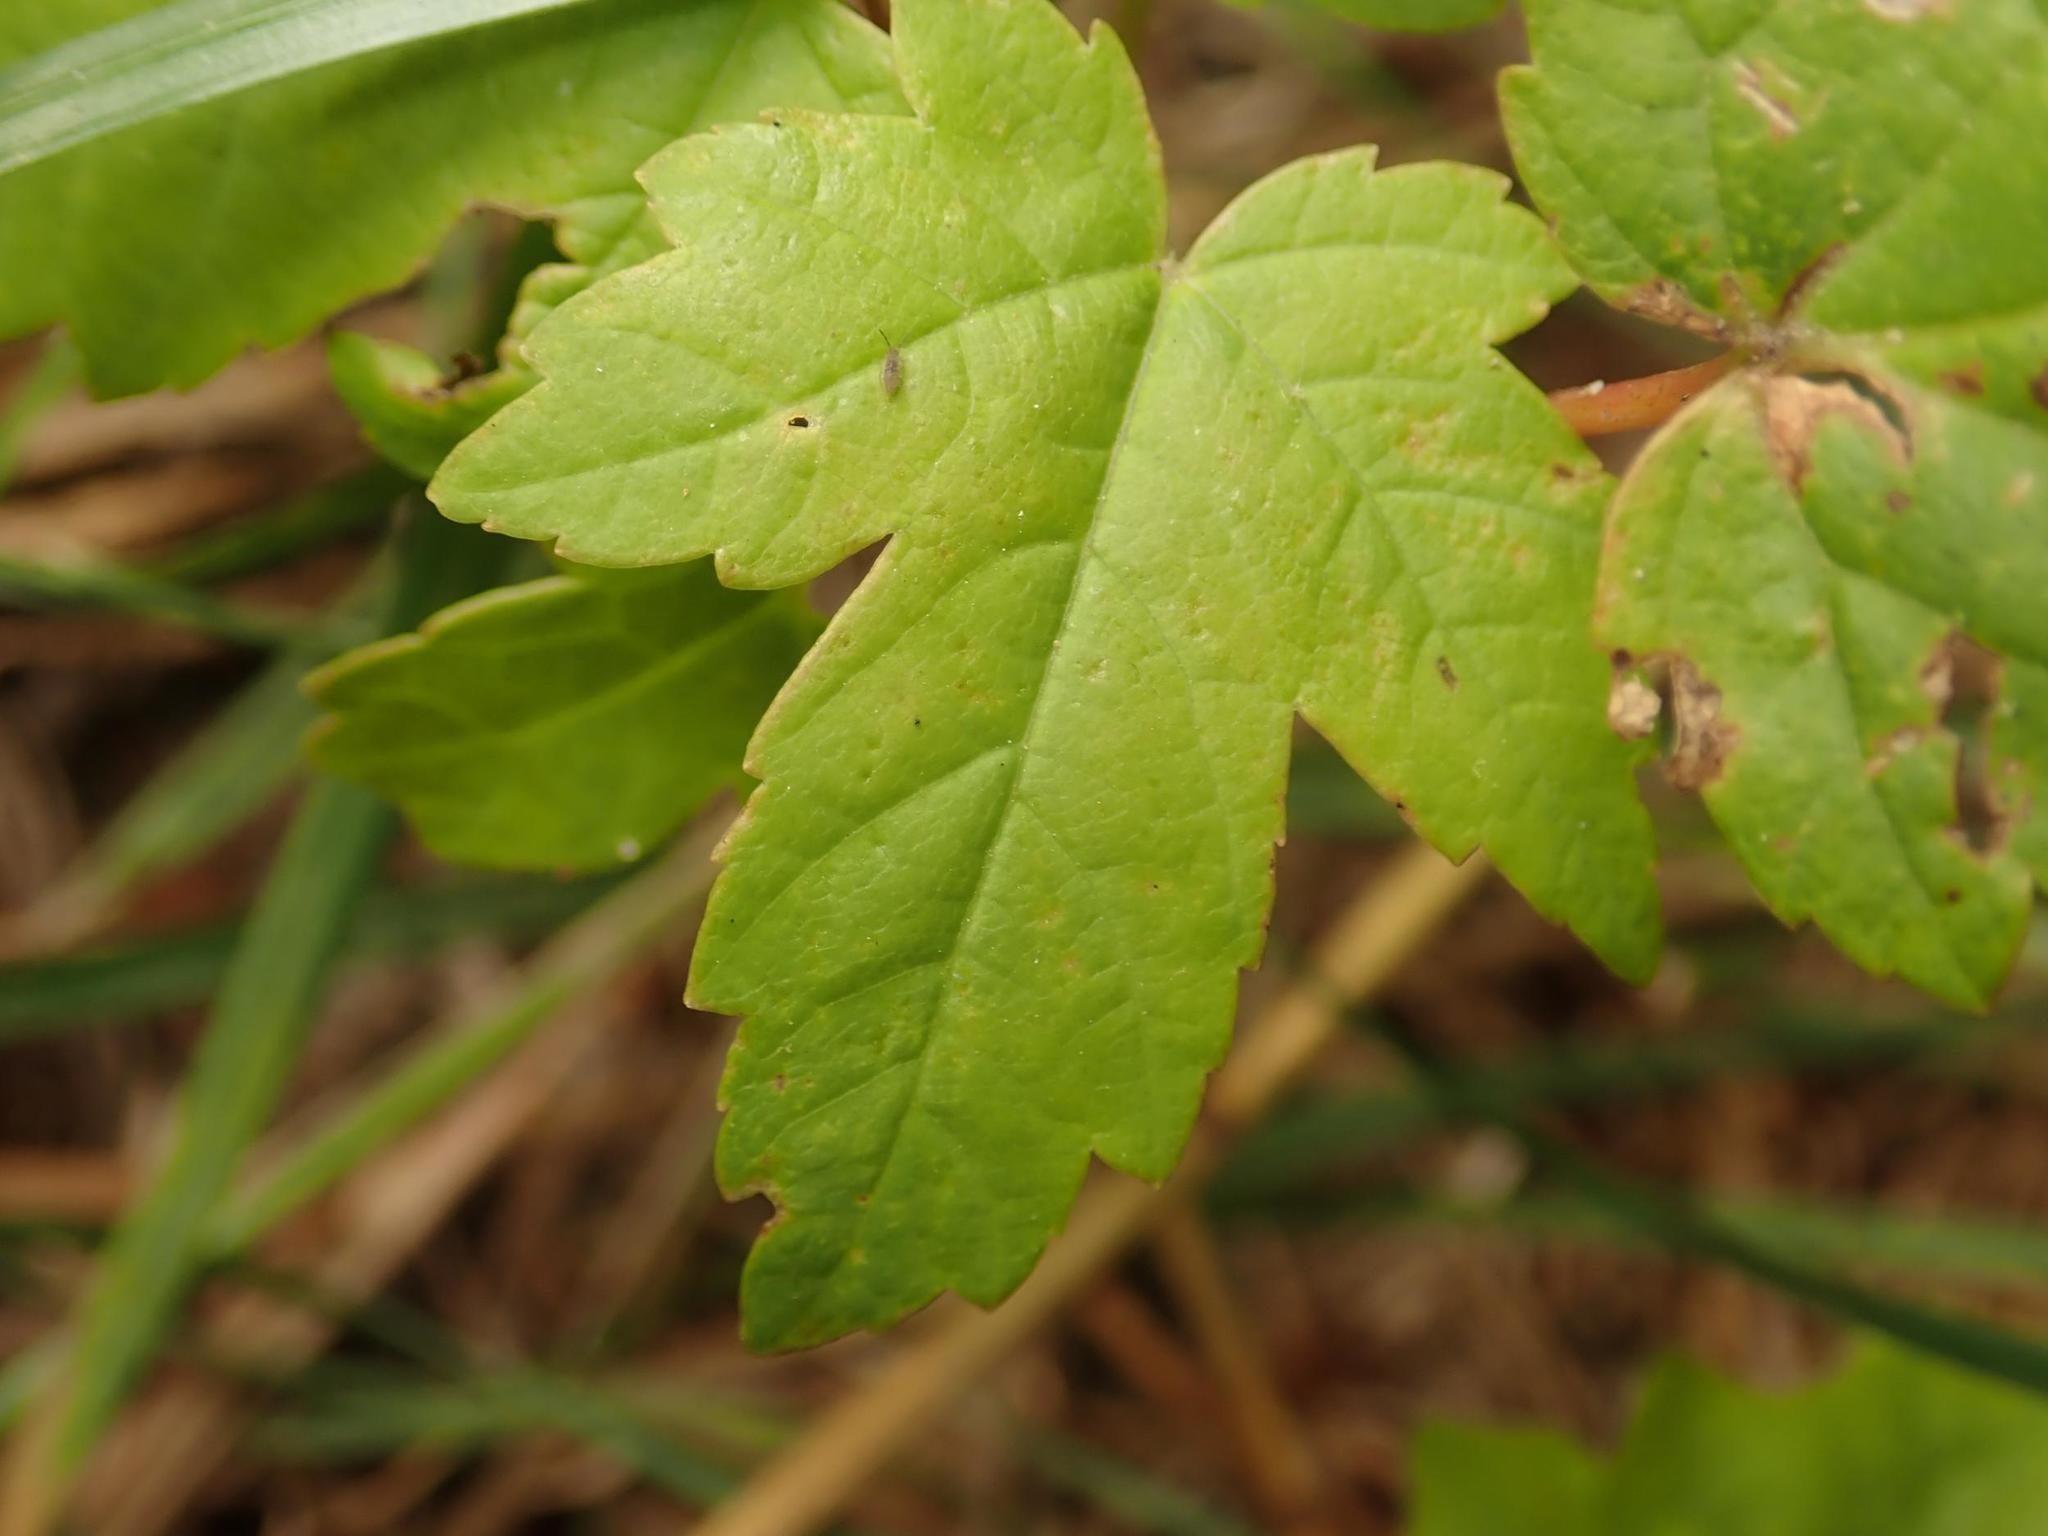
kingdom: Plantae
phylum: Tracheophyta
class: Magnoliopsida
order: Sapindales
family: Sapindaceae
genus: Acer
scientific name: Acer pseudoplatanus
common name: Sycamore
